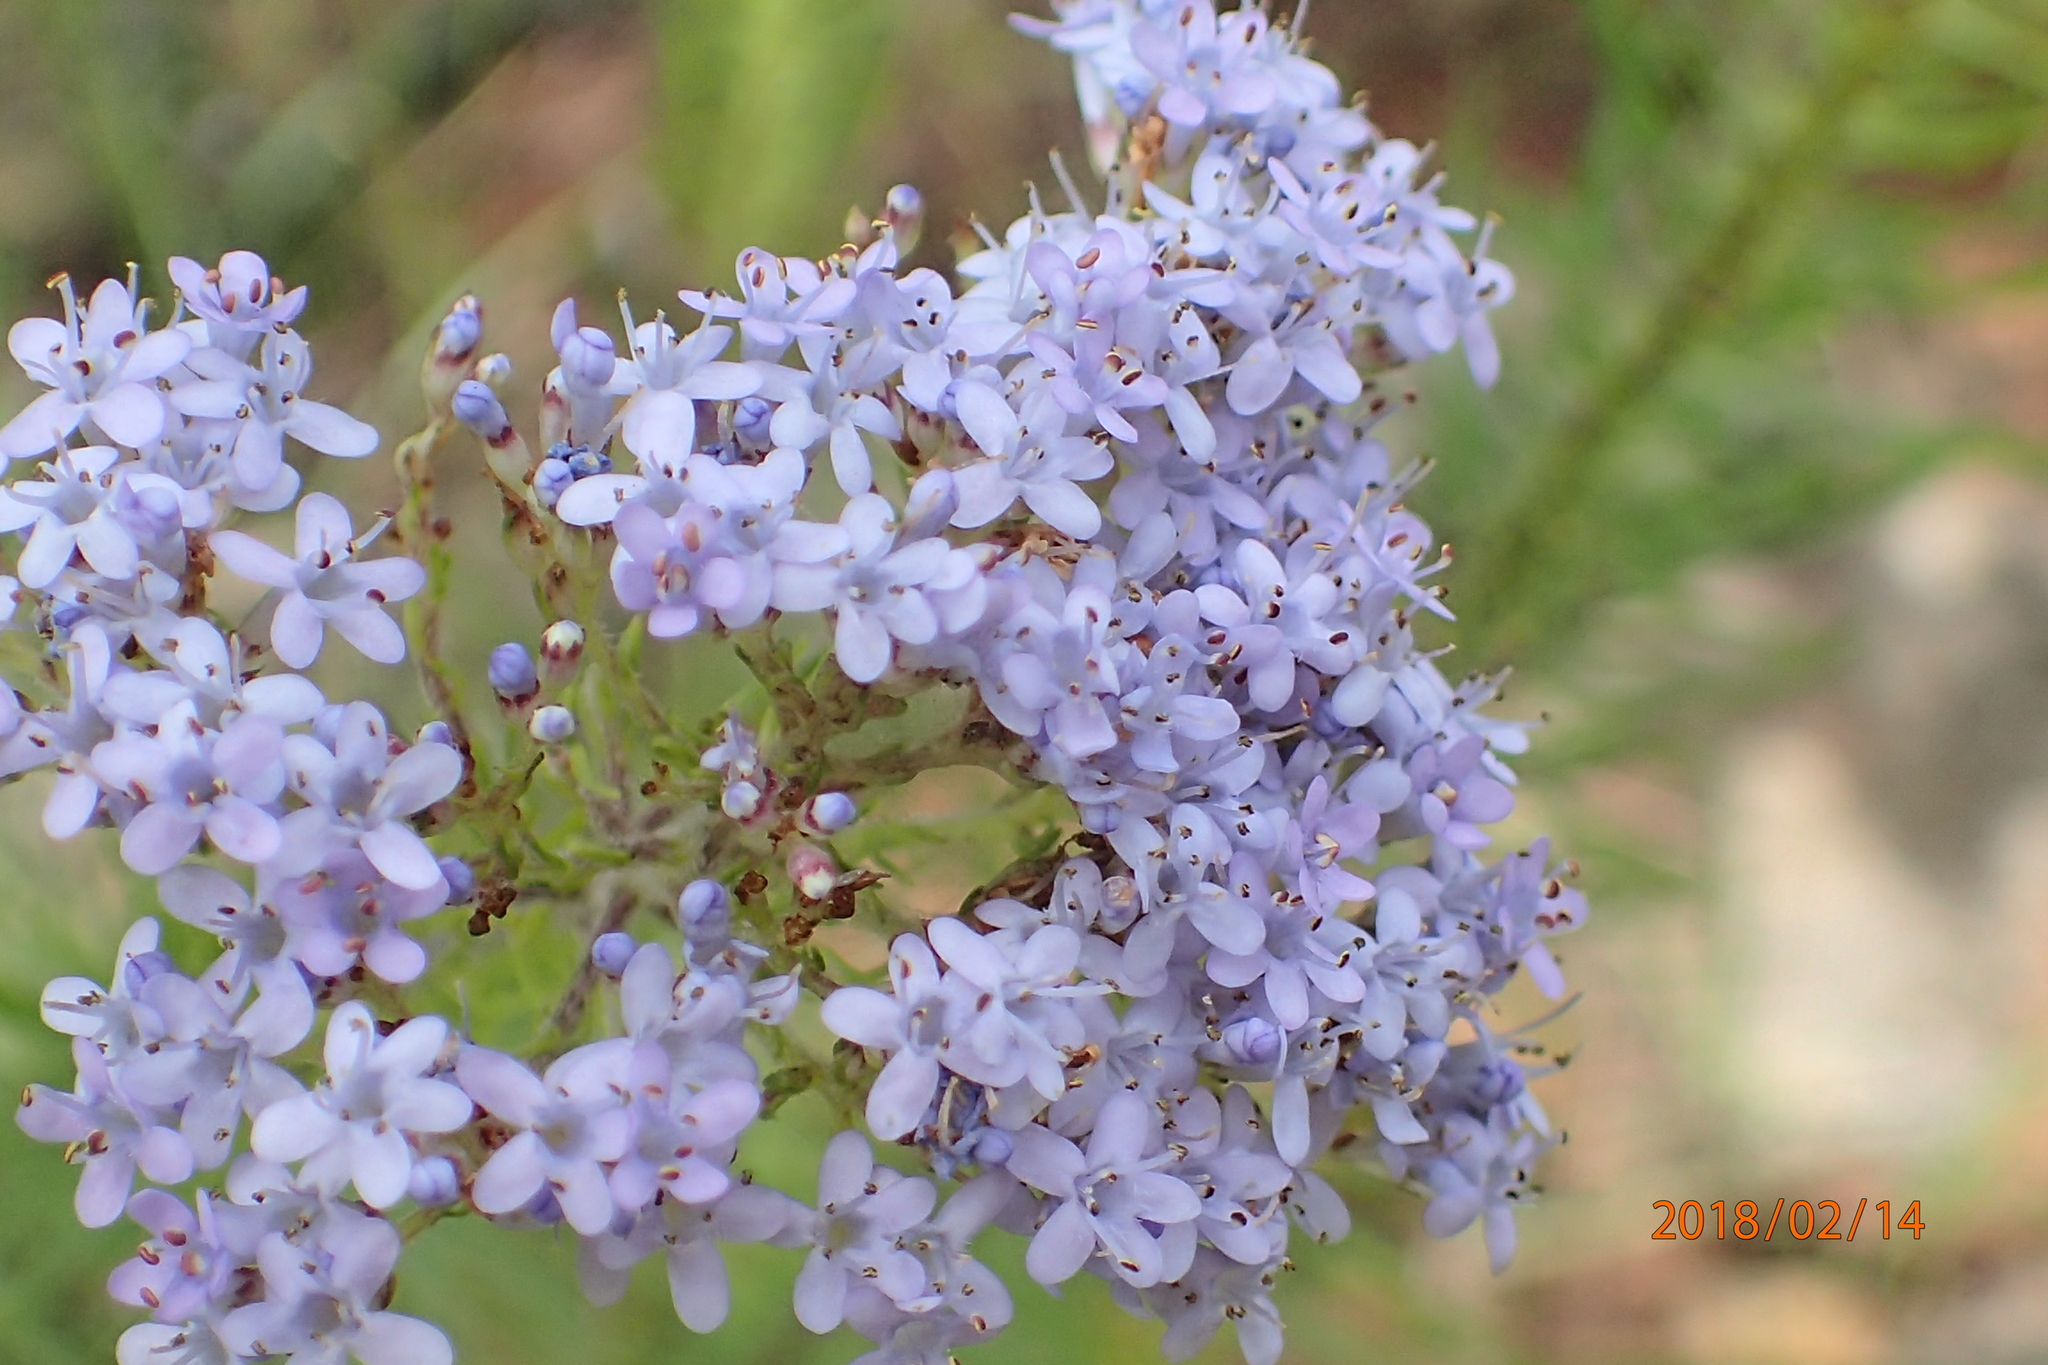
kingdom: Plantae
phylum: Tracheophyta
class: Magnoliopsida
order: Lamiales
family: Scrophulariaceae
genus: Tetraselago
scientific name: Tetraselago natalensis
